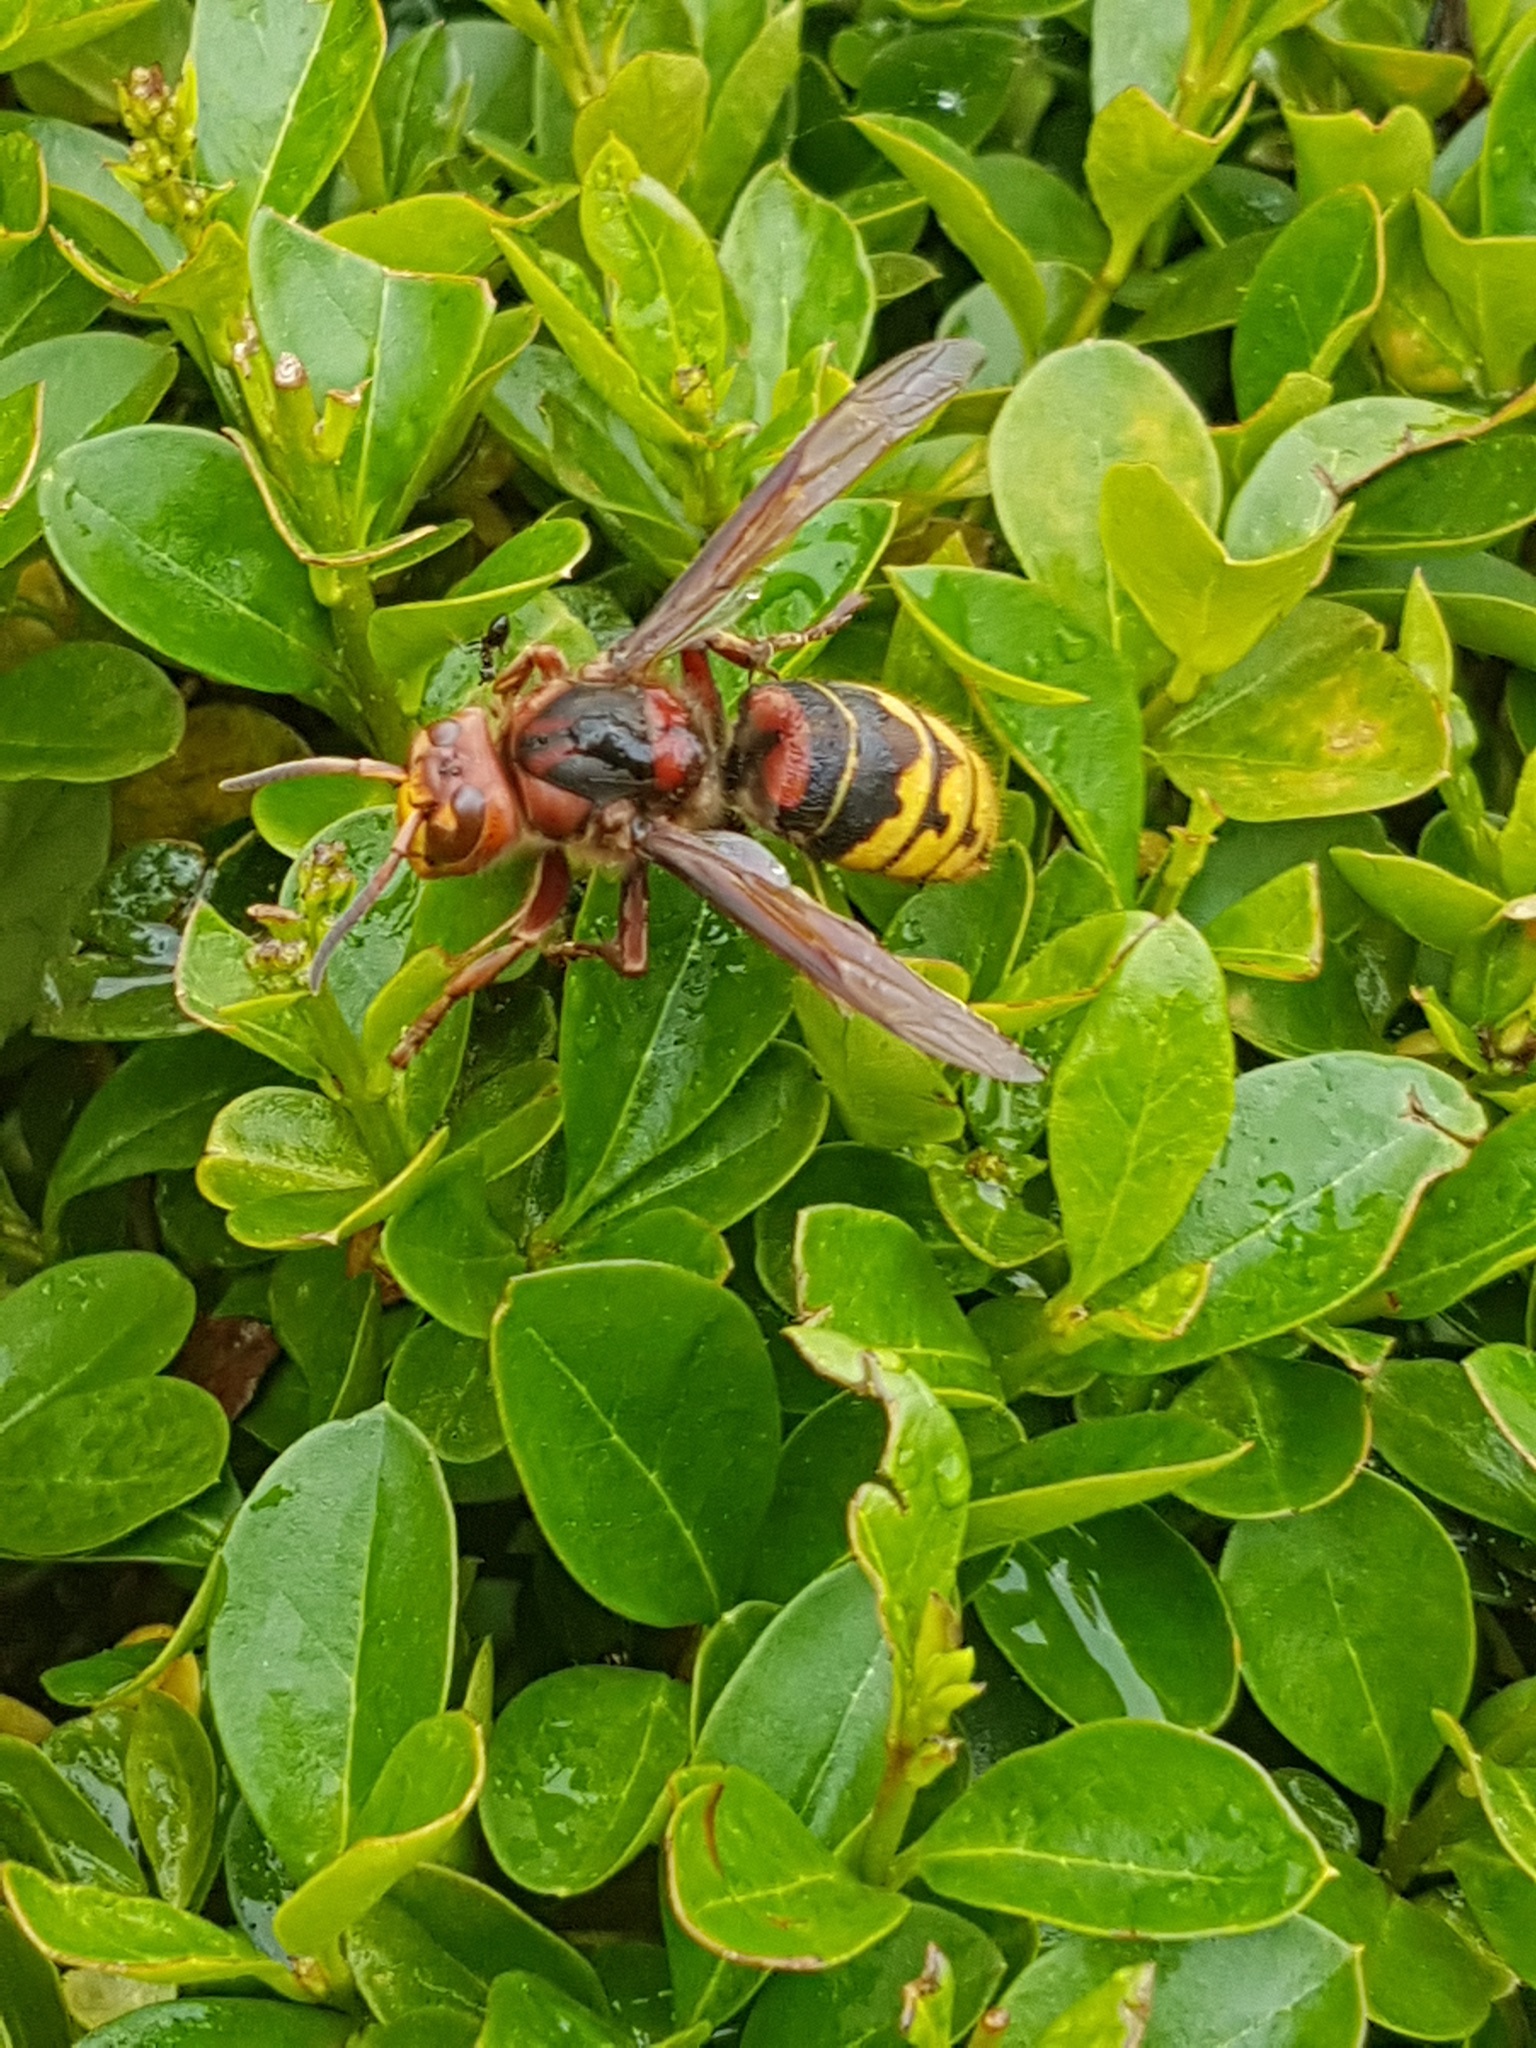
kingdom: Animalia
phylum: Arthropoda
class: Insecta
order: Hymenoptera
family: Vespidae
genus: Vespa
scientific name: Vespa crabro
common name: Hornet
